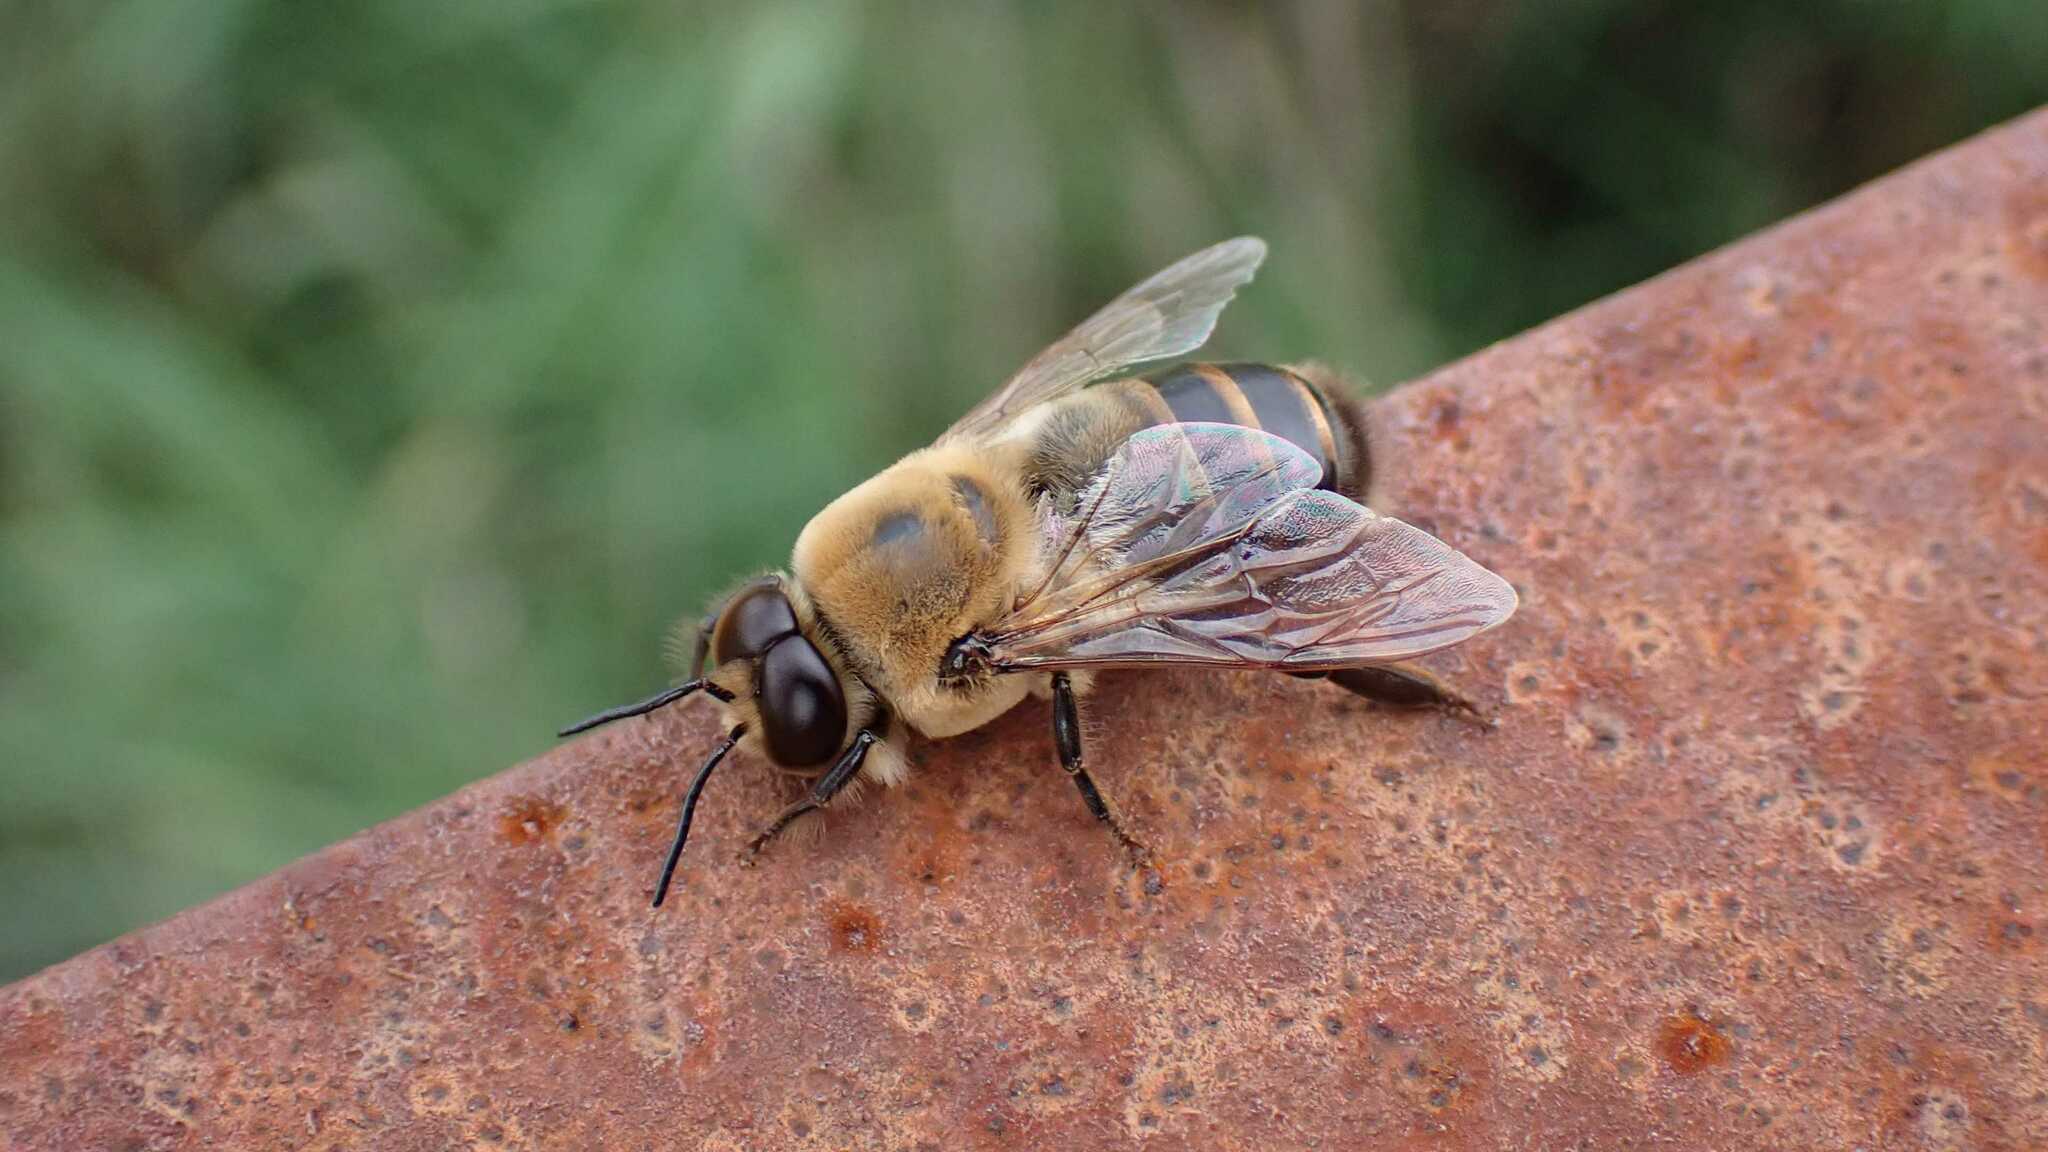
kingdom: Animalia
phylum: Arthropoda
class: Insecta
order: Hymenoptera
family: Apidae
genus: Apis
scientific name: Apis mellifera
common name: Honey bee
